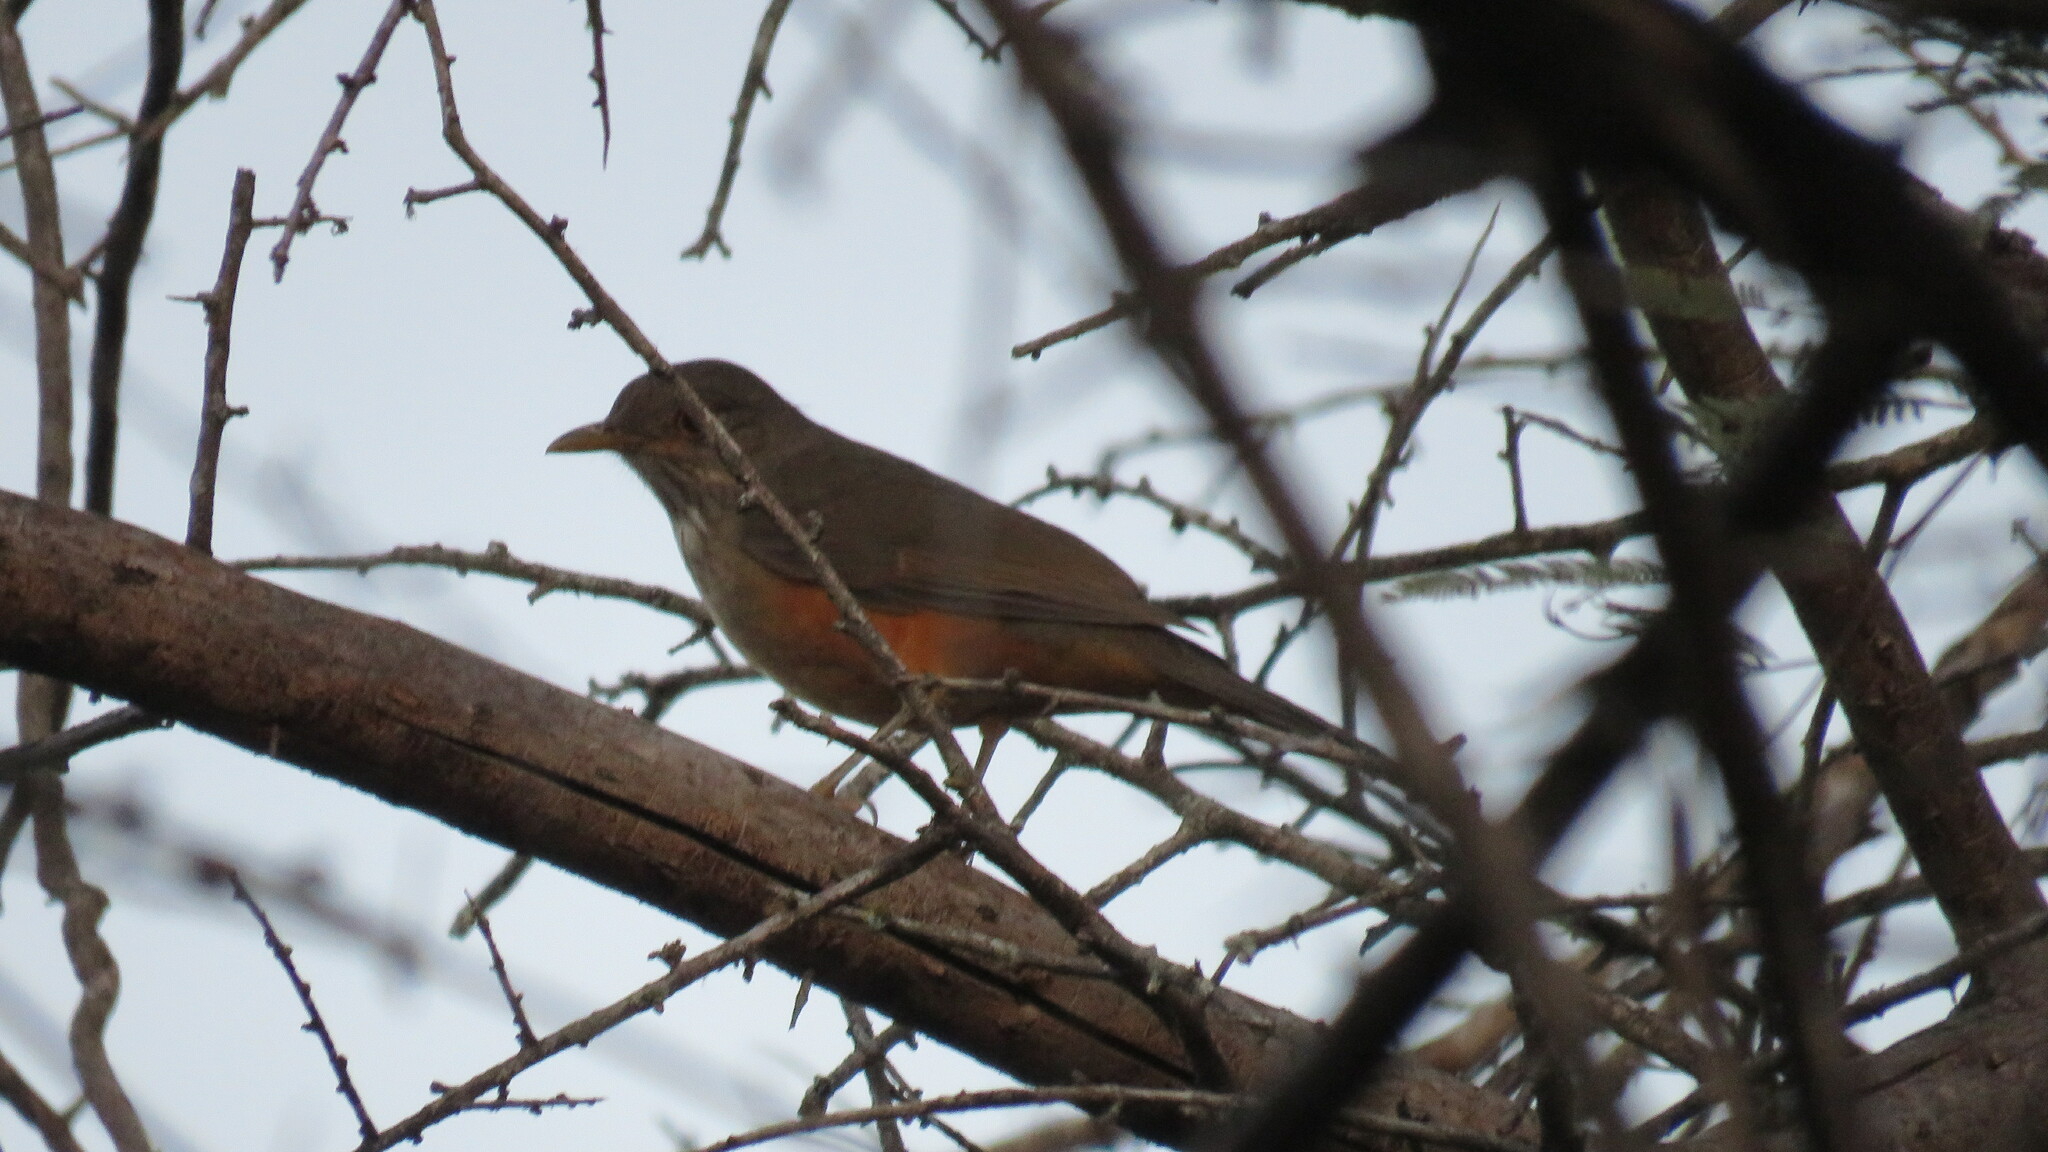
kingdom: Animalia
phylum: Chordata
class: Aves
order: Passeriformes
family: Turdidae
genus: Turdus
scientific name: Turdus rufiventris
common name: Rufous-bellied thrush
